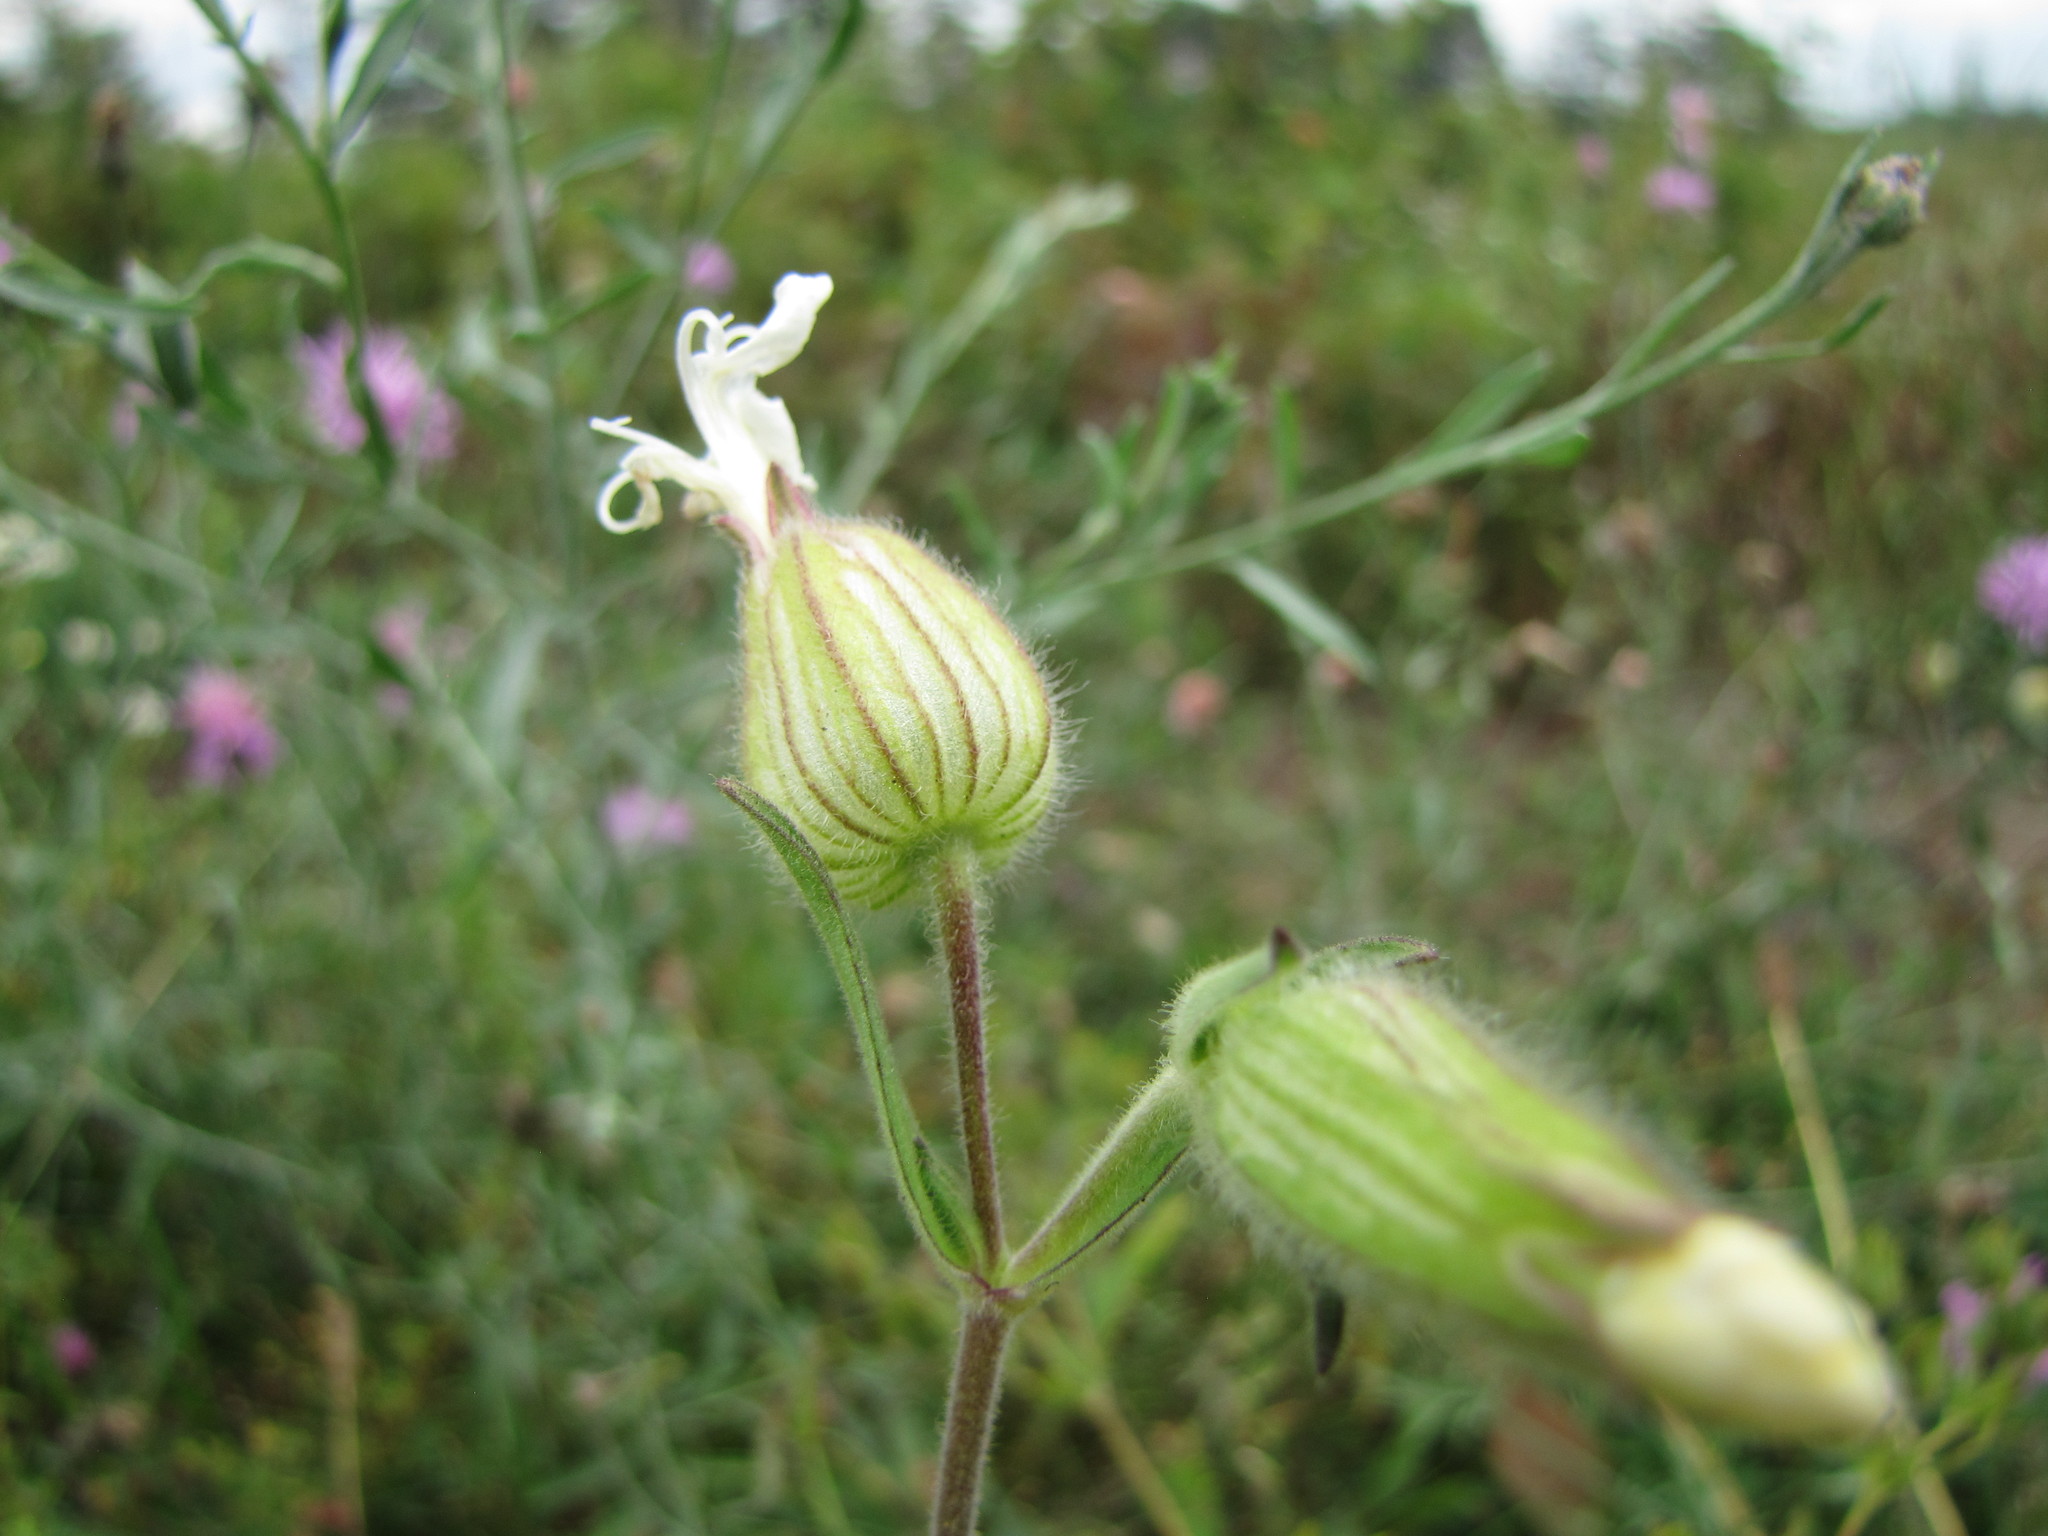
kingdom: Plantae
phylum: Tracheophyta
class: Magnoliopsida
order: Caryophyllales
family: Caryophyllaceae
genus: Silene
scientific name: Silene latifolia
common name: White campion
